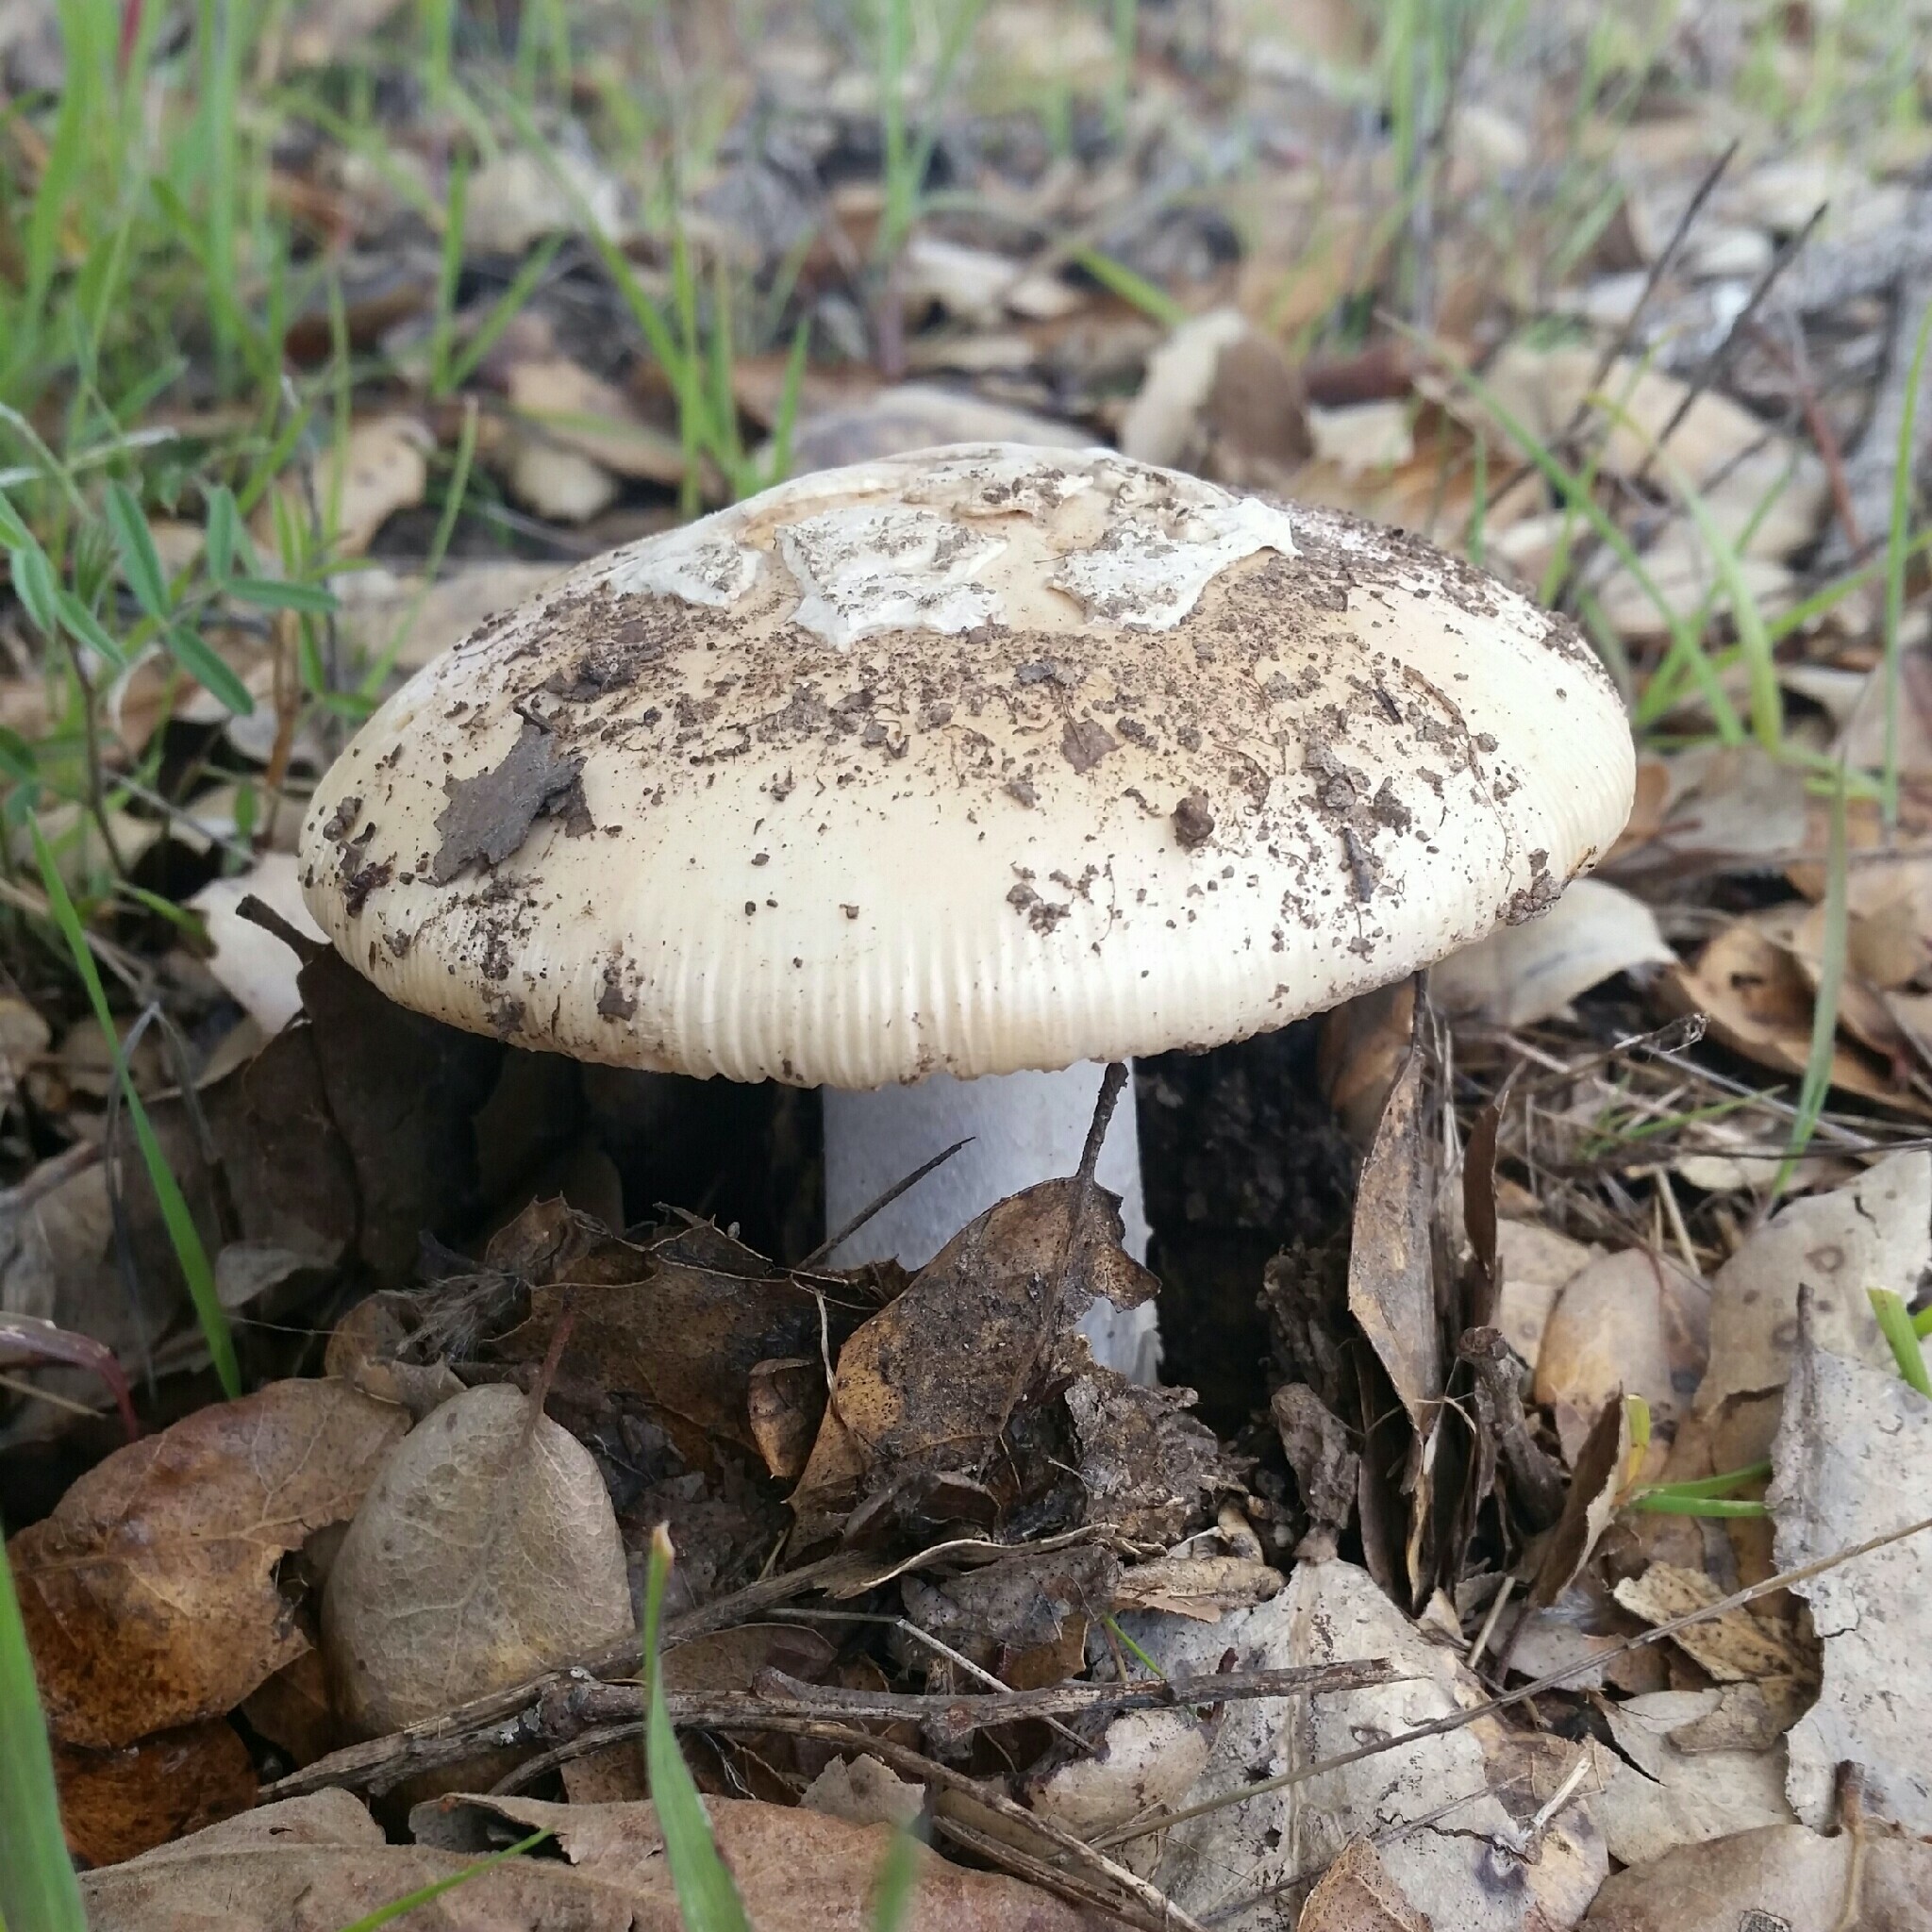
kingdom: Fungi
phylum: Basidiomycota
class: Agaricomycetes
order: Agaricales
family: Amanitaceae
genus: Amanita
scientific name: Amanita velosa
